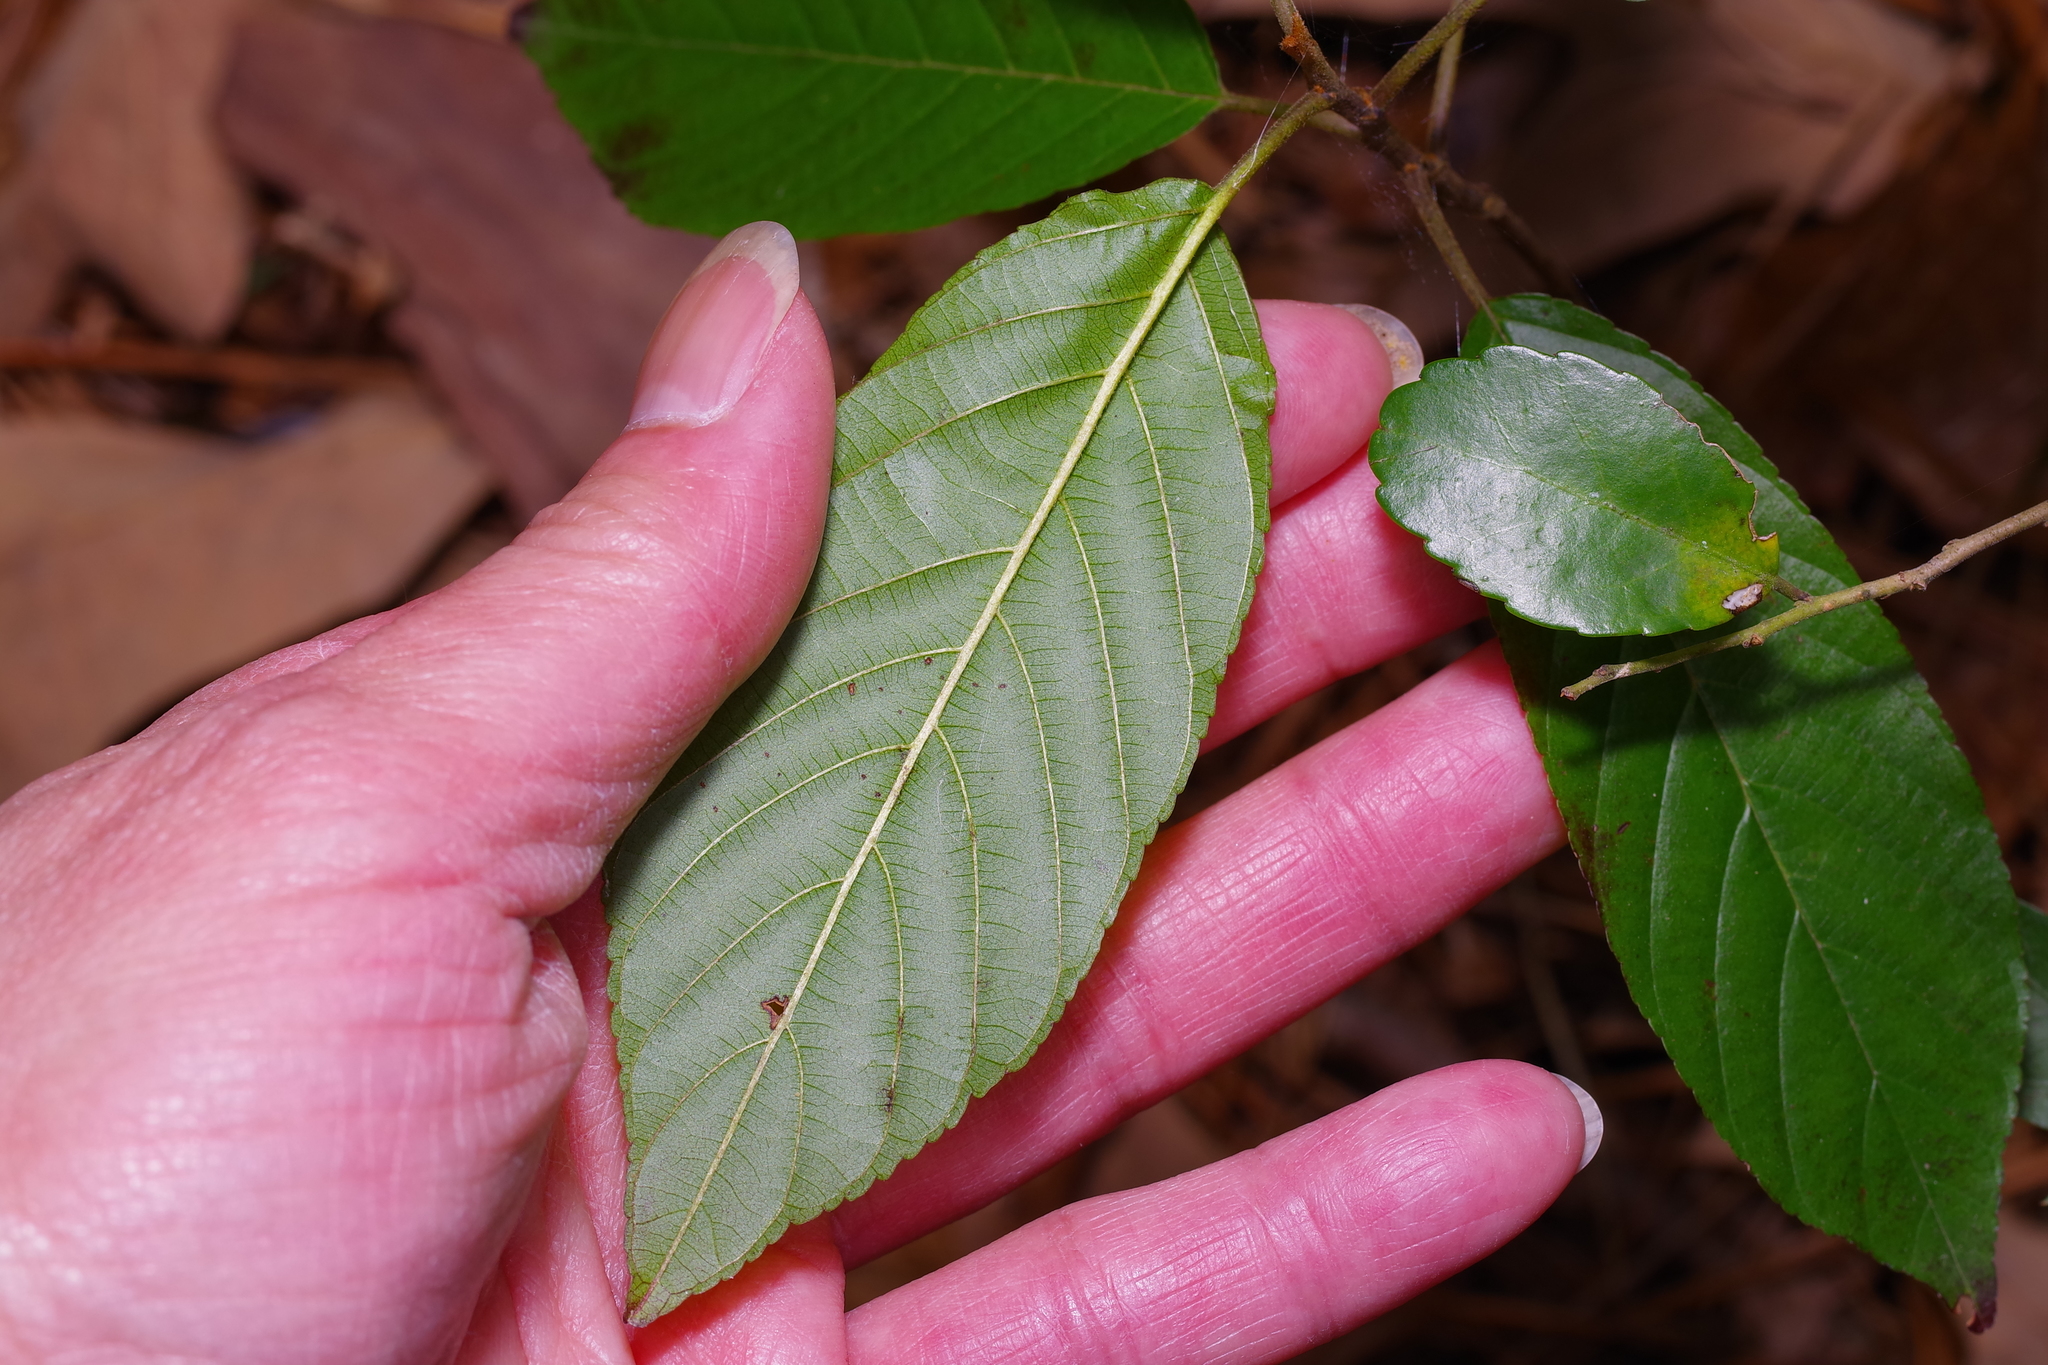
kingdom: Plantae
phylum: Tracheophyta
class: Magnoliopsida
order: Rosales
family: Rhamnaceae
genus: Frangula
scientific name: Frangula caroliniana
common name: Carolina buckthorn
